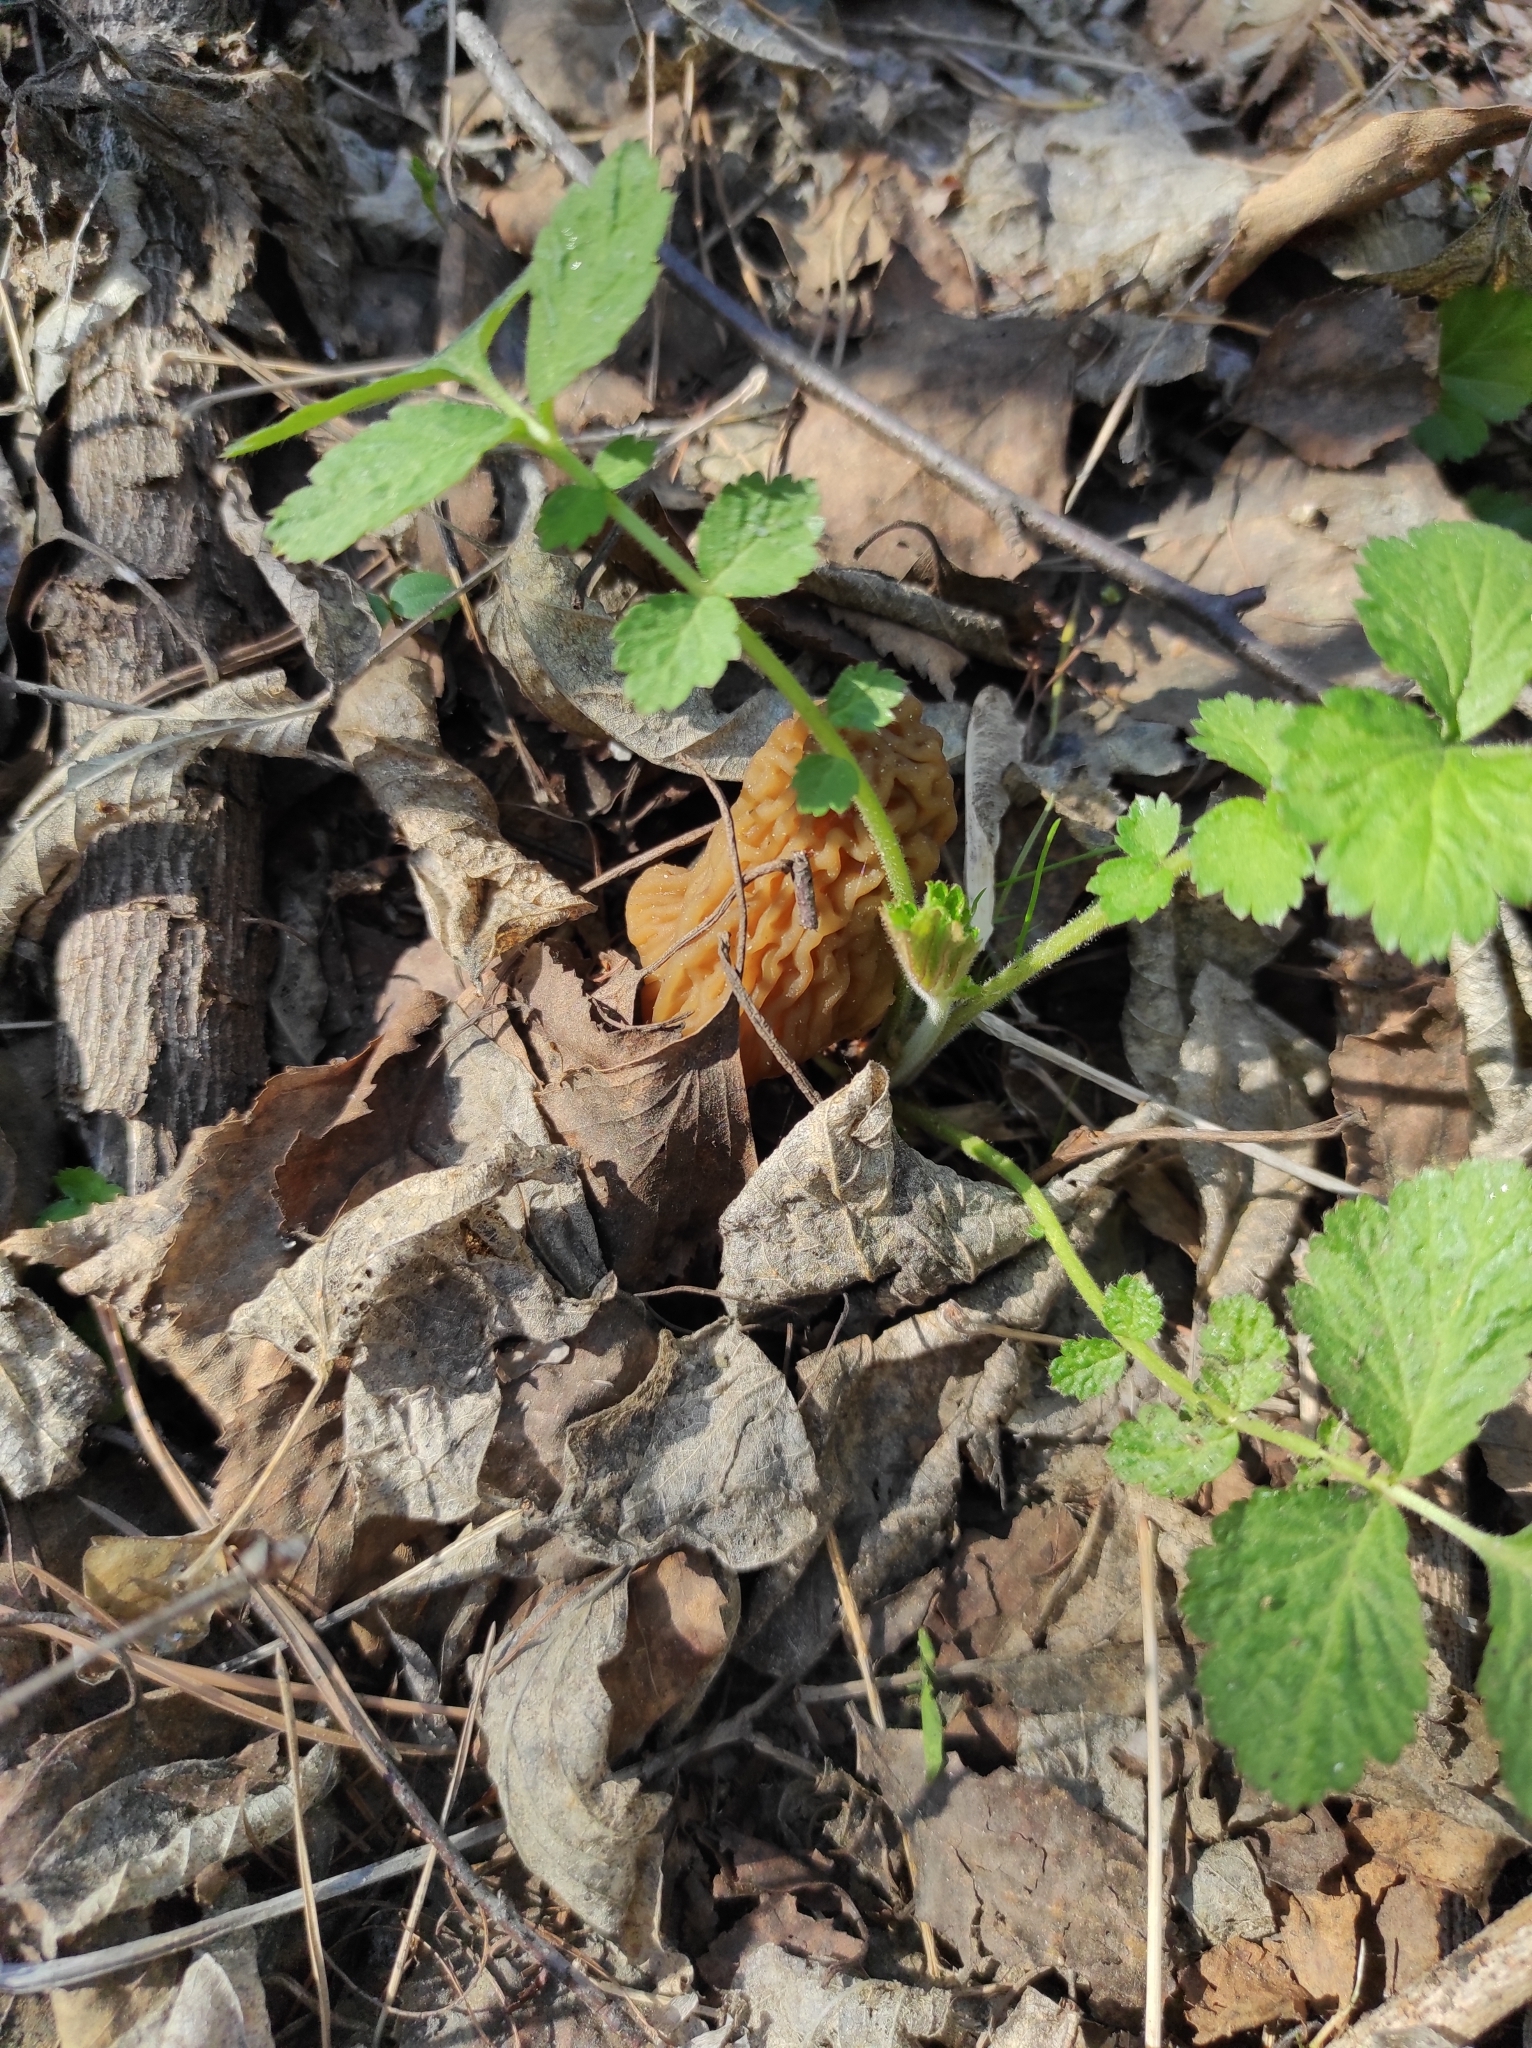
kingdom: Fungi
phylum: Ascomycota
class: Pezizomycetes
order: Pezizales
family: Morchellaceae
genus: Verpa
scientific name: Verpa bohemica
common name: Wrinkled thimble morel
